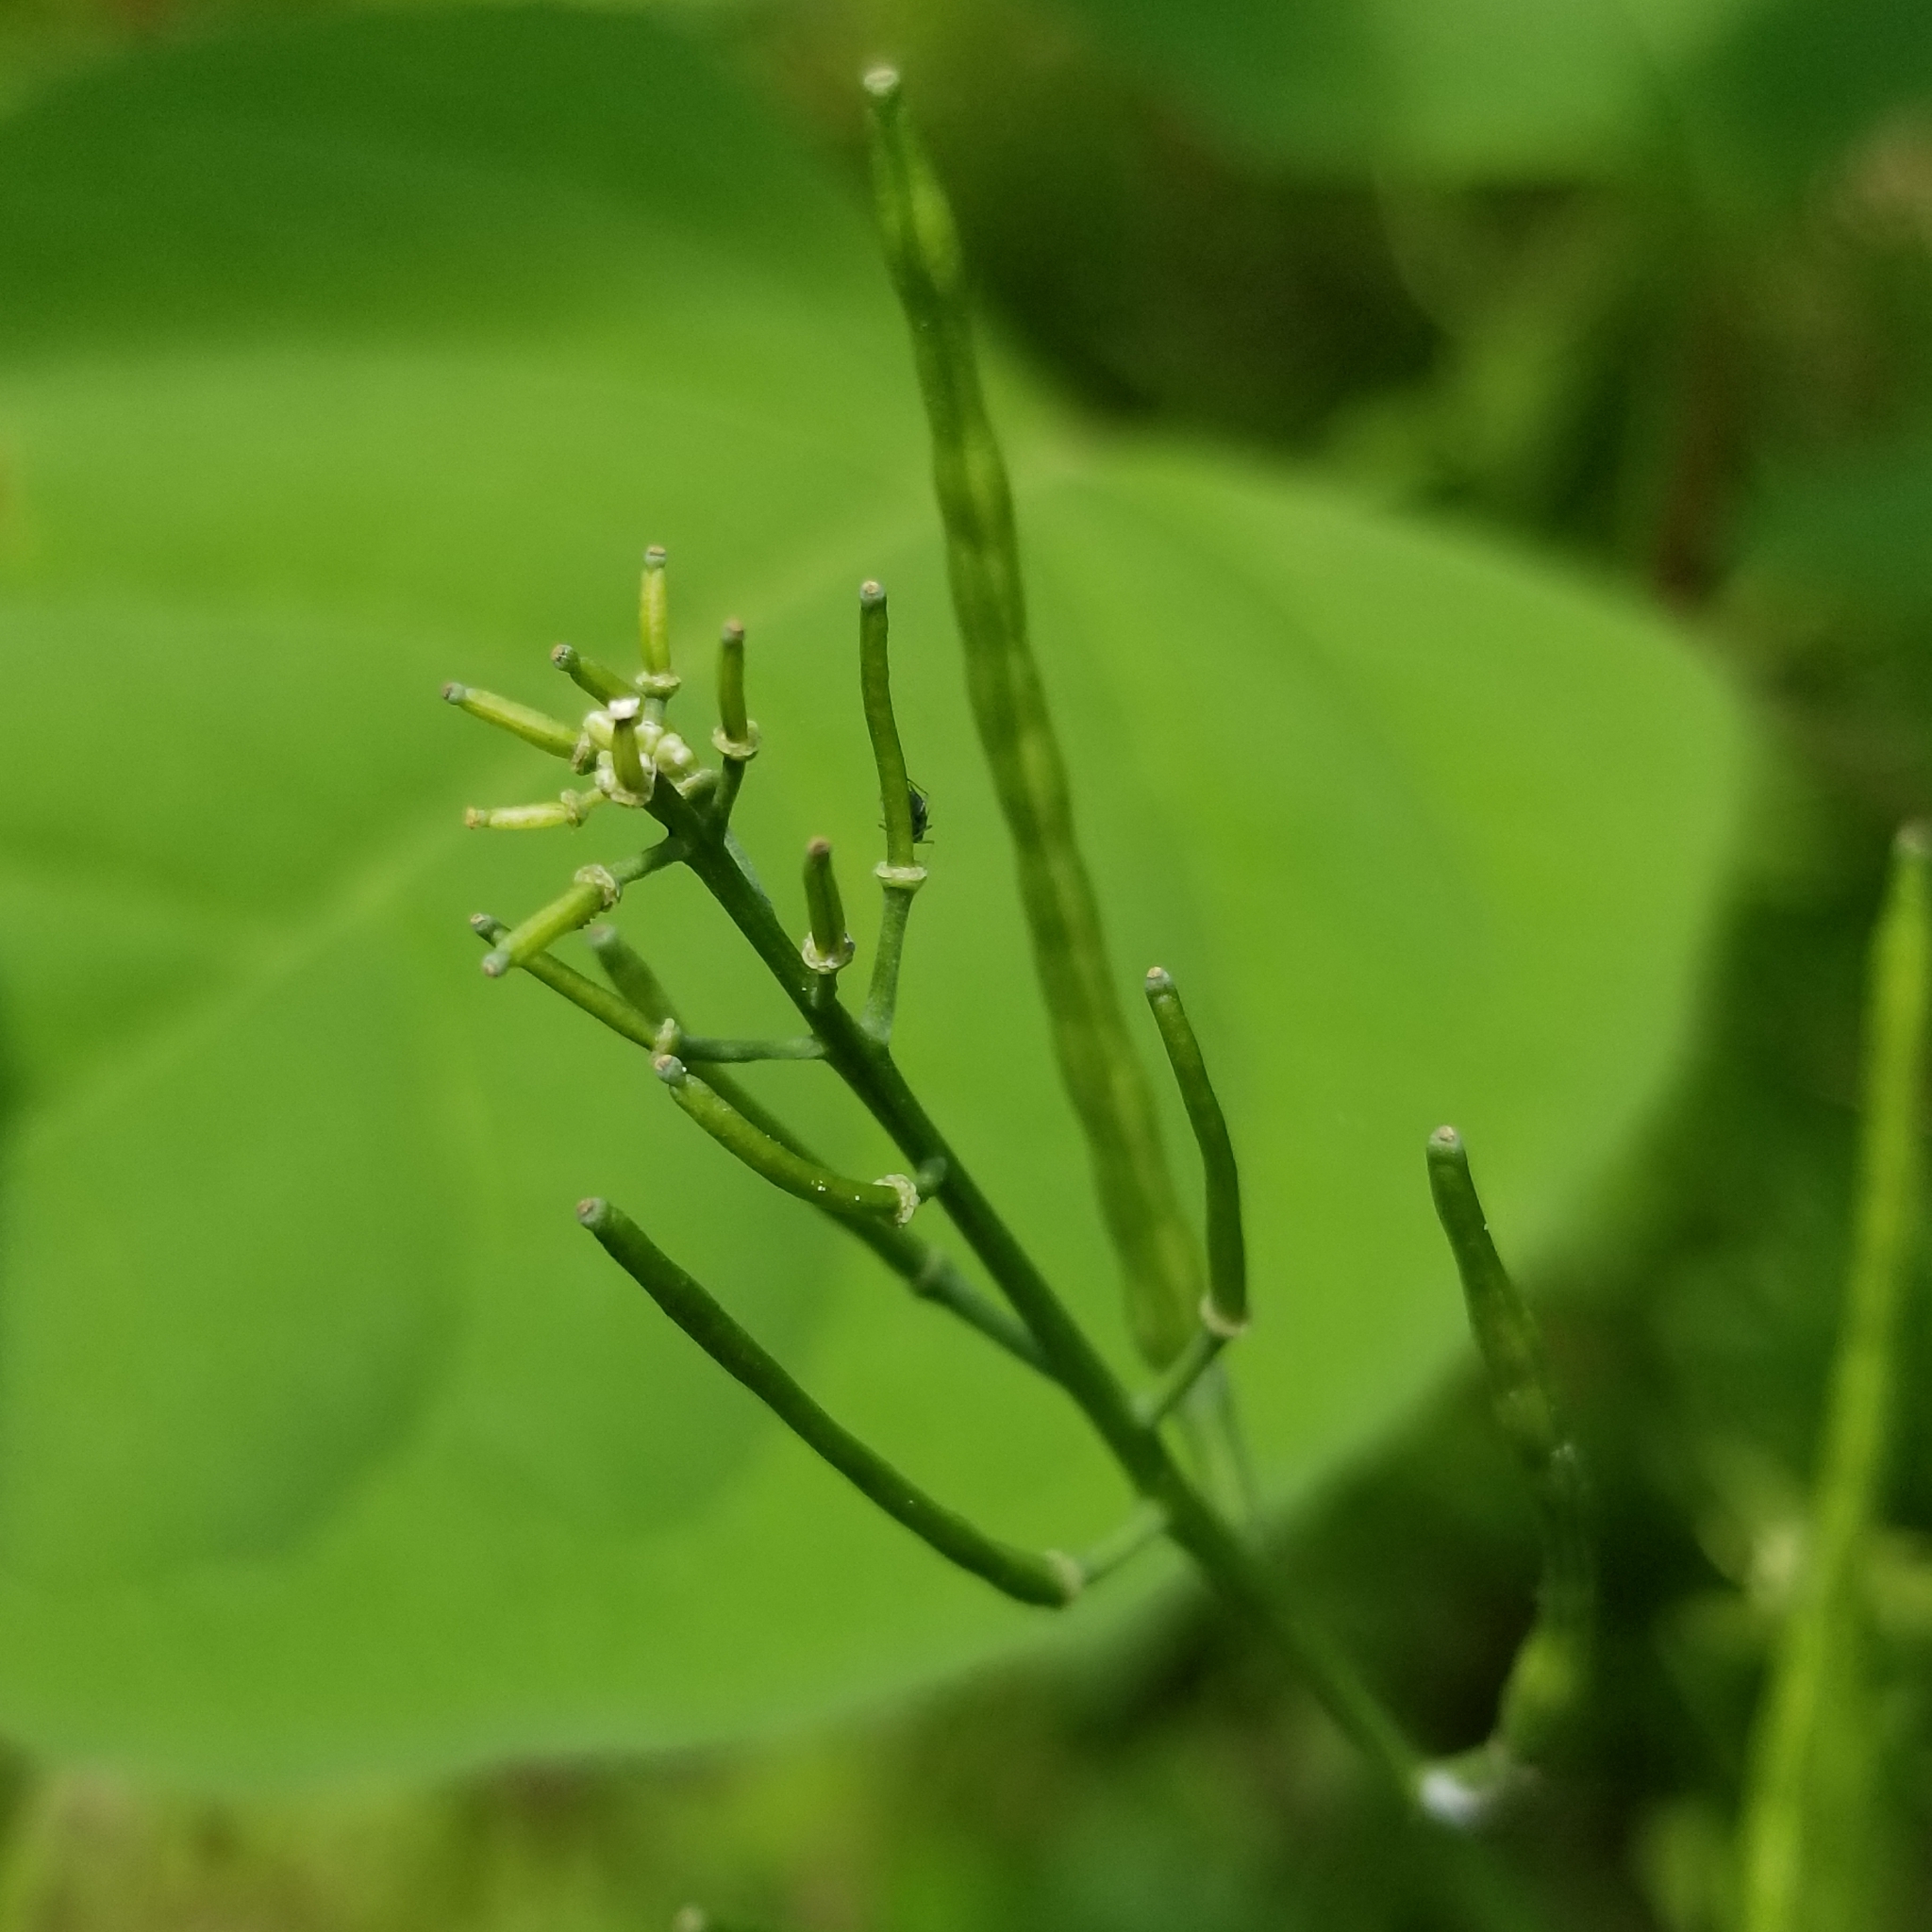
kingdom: Plantae
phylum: Tracheophyta
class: Magnoliopsida
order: Brassicales
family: Brassicaceae
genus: Alliaria
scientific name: Alliaria petiolata
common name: Garlic mustard
